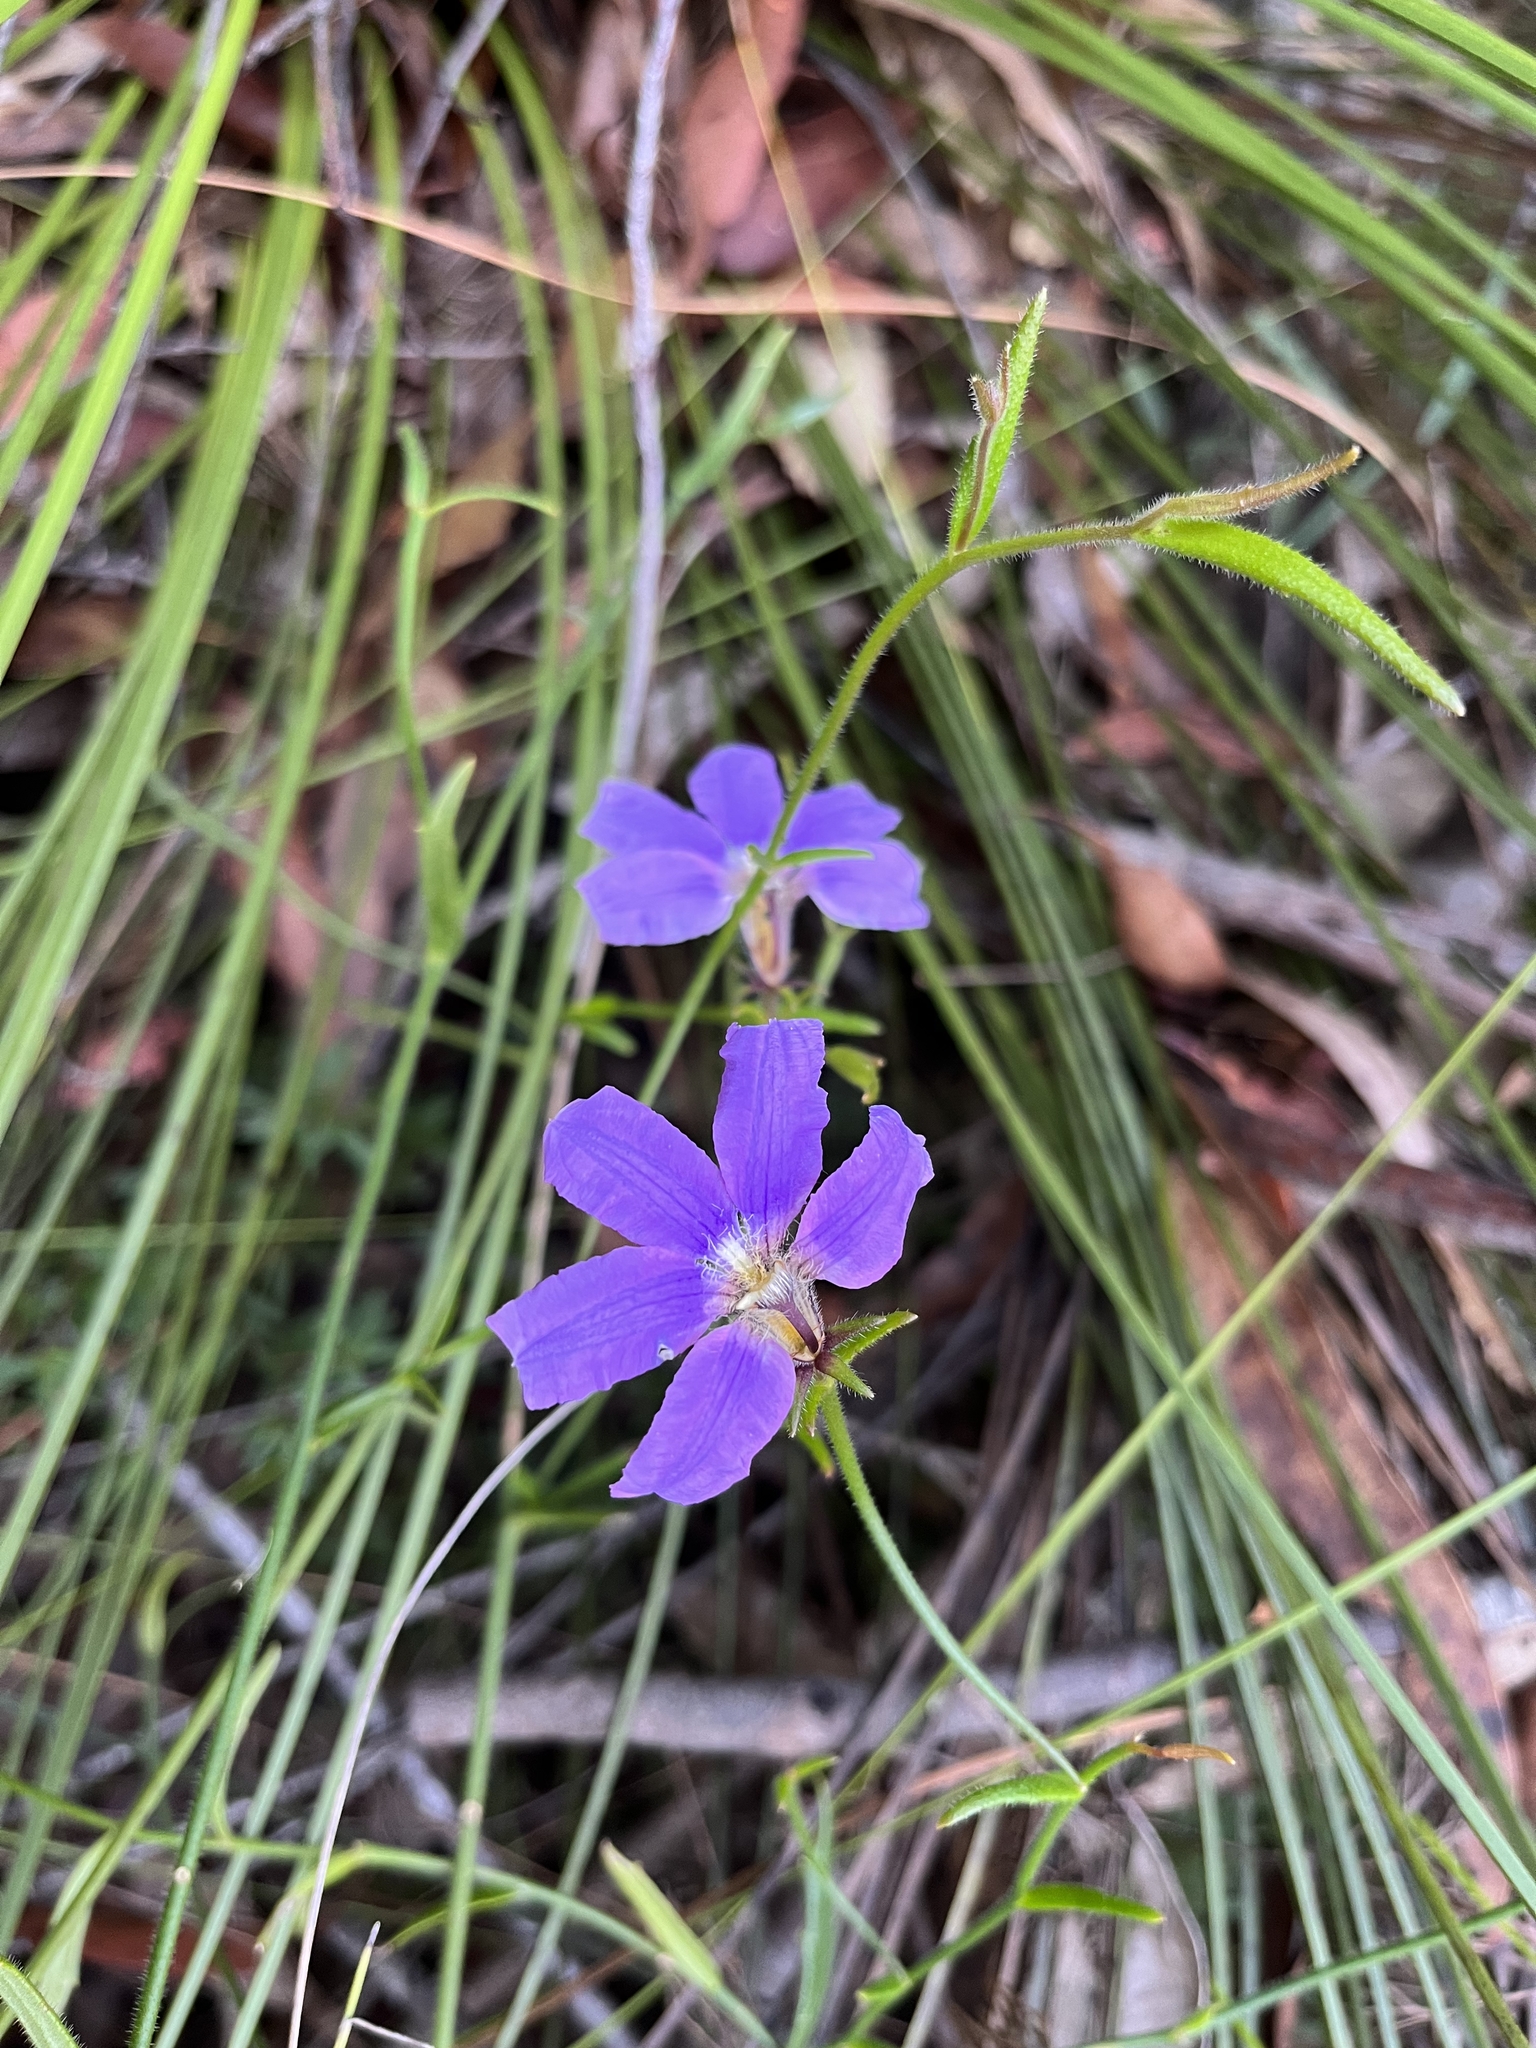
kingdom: Plantae
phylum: Tracheophyta
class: Magnoliopsida
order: Asterales
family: Goodeniaceae
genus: Scaevola
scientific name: Scaevola ramosissima
